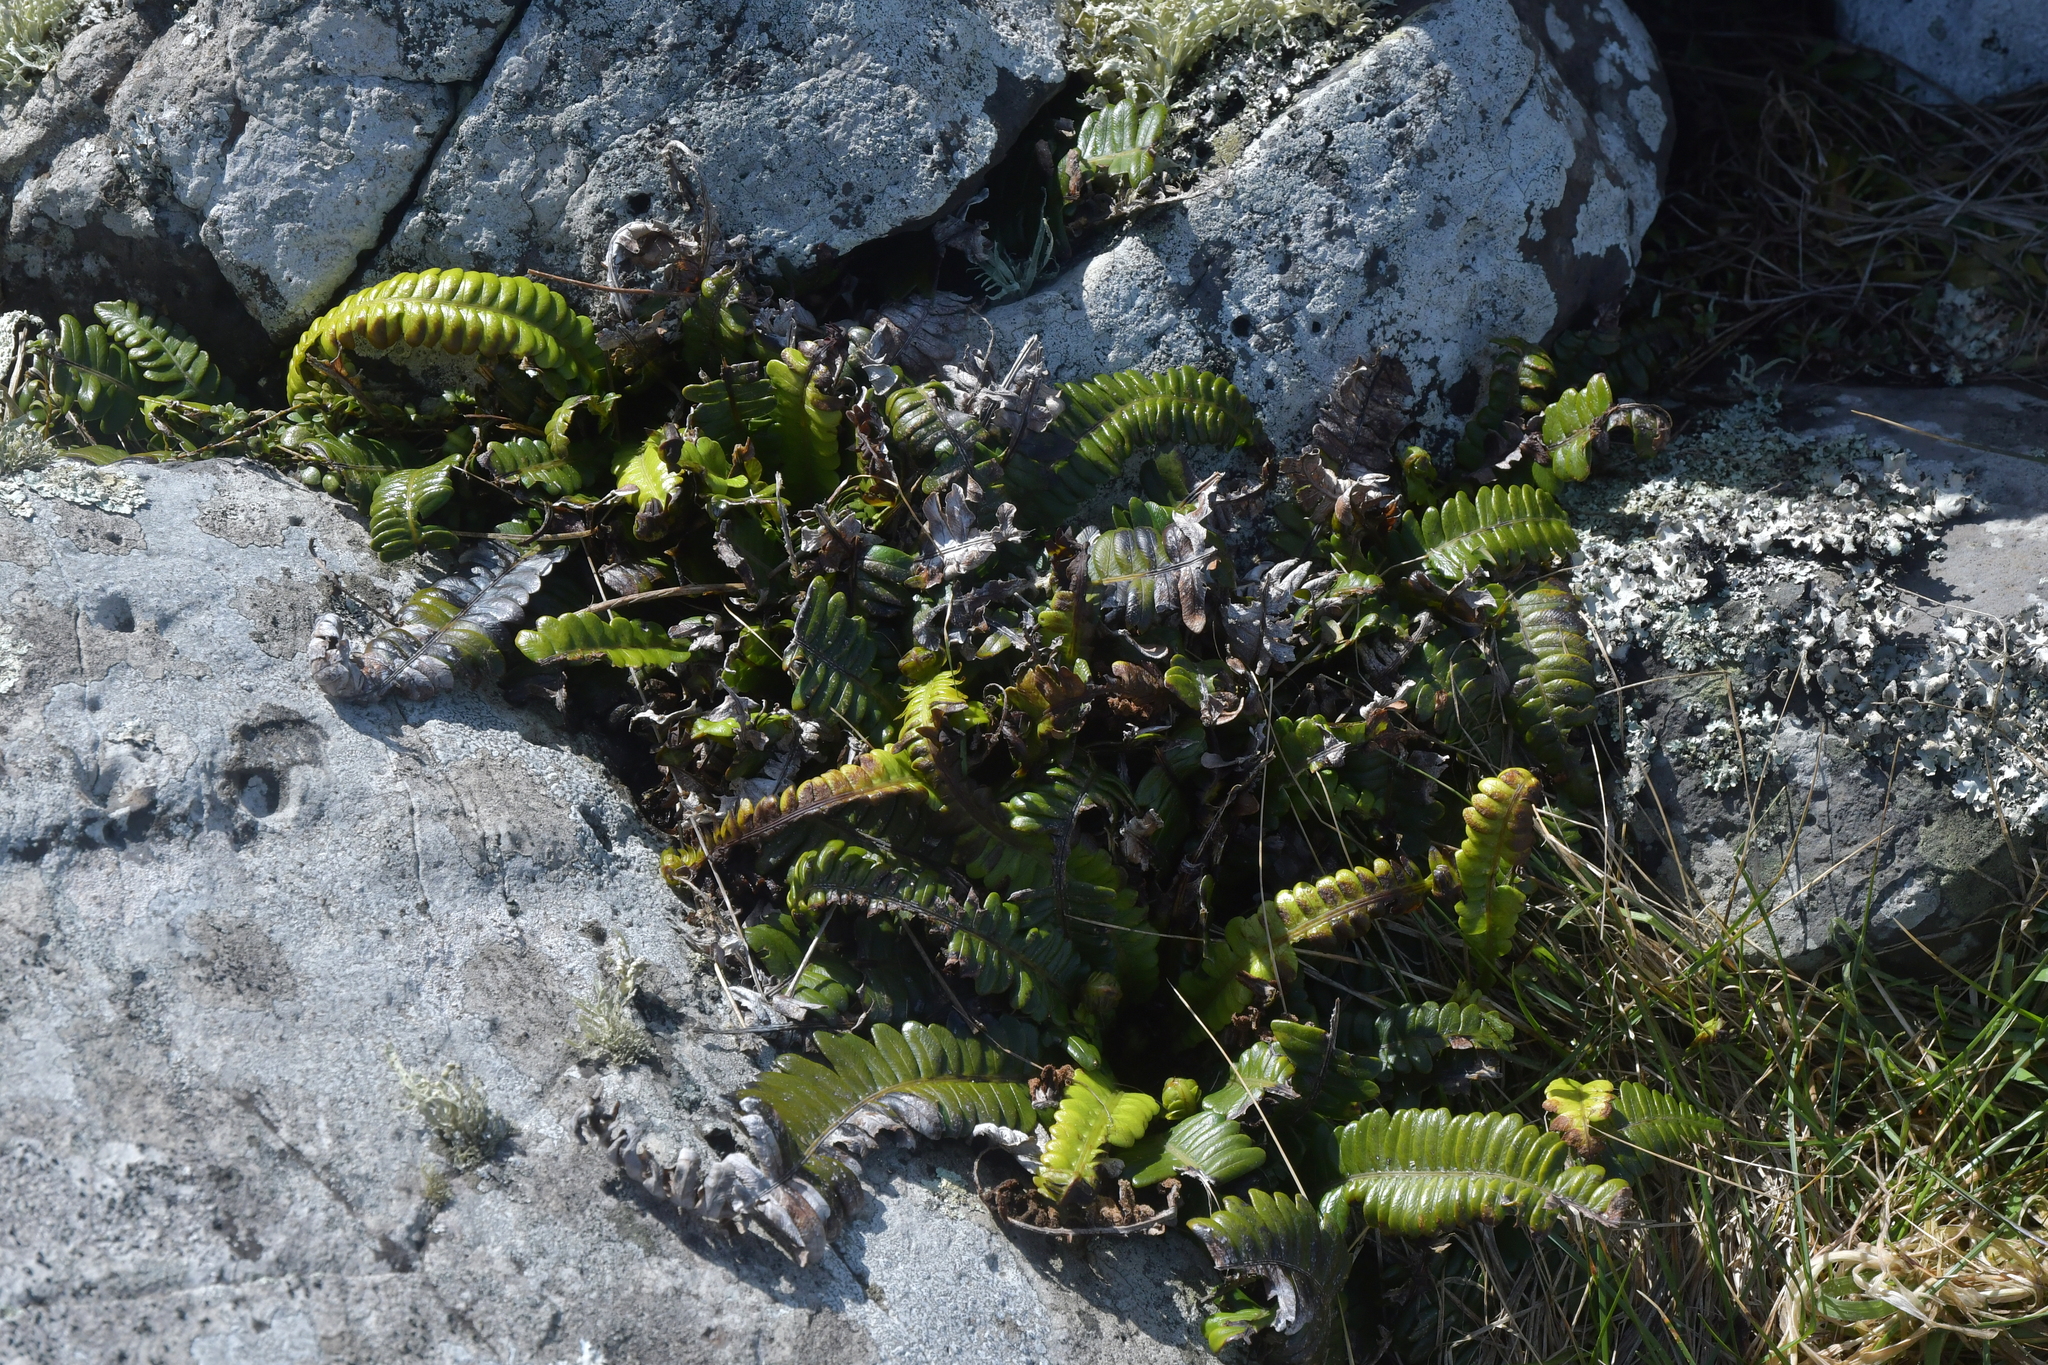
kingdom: Plantae
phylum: Tracheophyta
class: Polypodiopsida
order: Polypodiales
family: Blechnaceae
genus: Austroblechnum
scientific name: Austroblechnum durum
